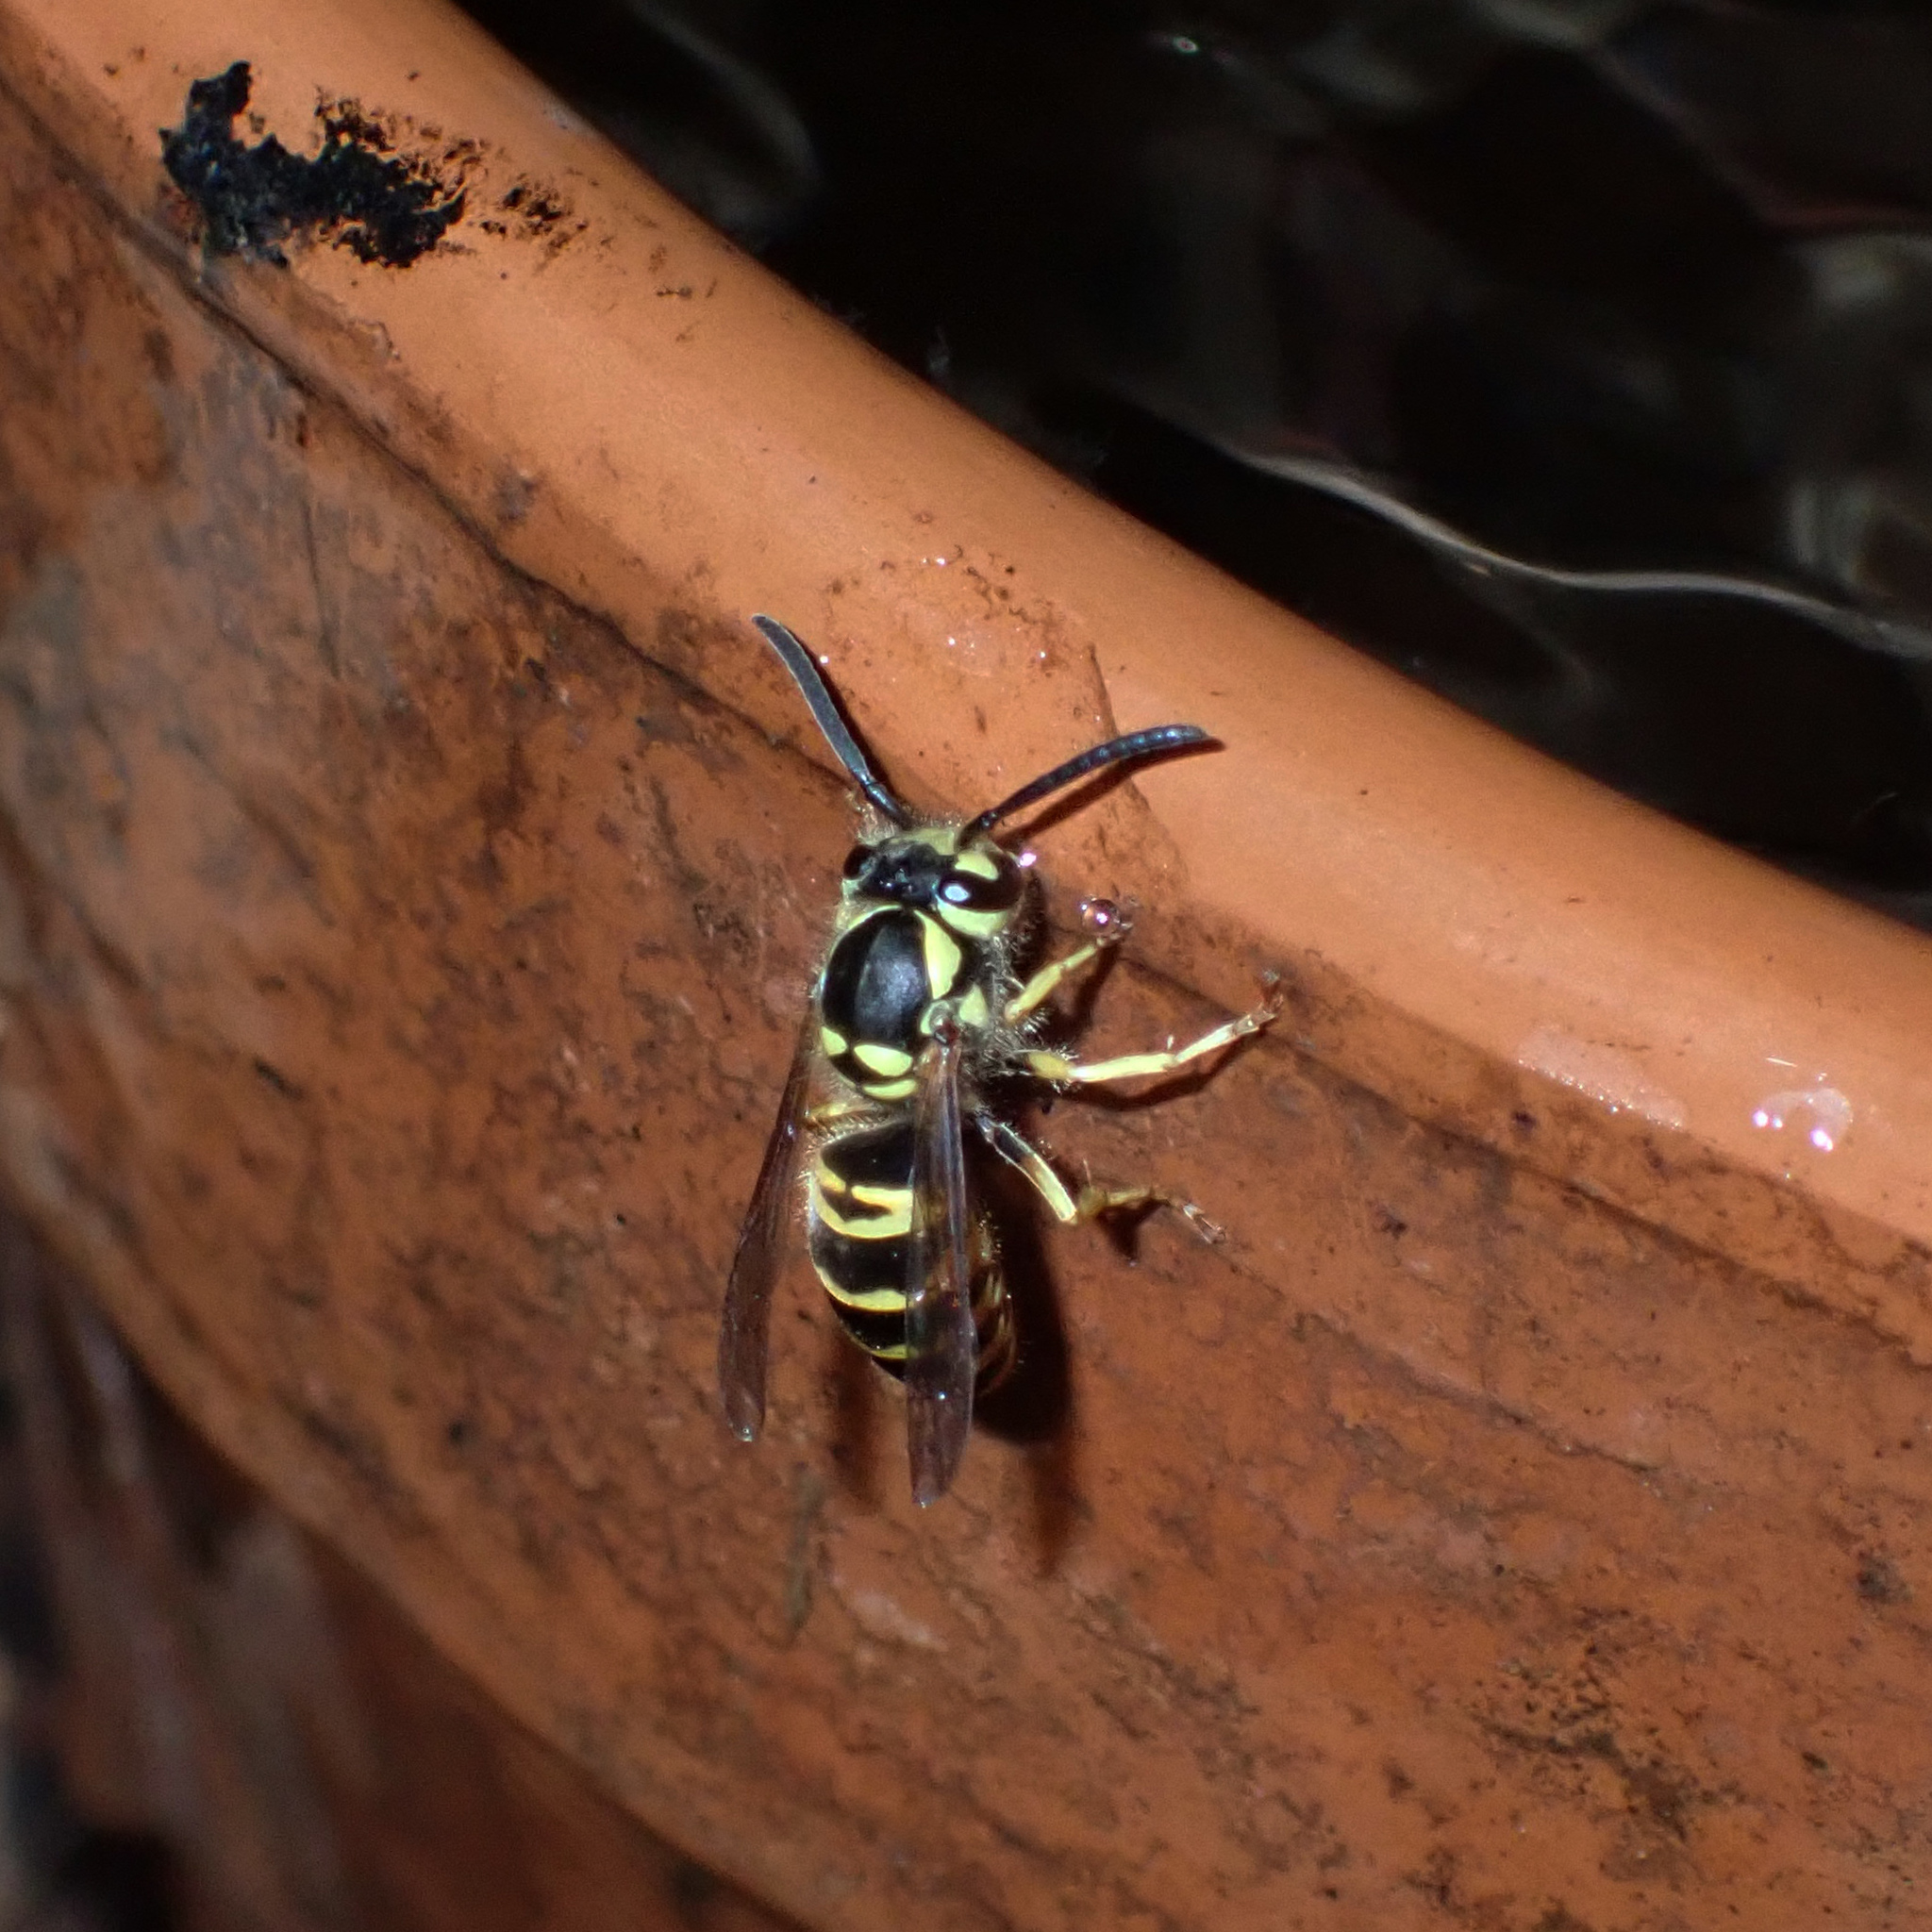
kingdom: Animalia
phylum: Arthropoda
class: Insecta
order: Hymenoptera
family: Vespidae
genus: Vespula
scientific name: Vespula maculifrons
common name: Eastern yellowjacket
